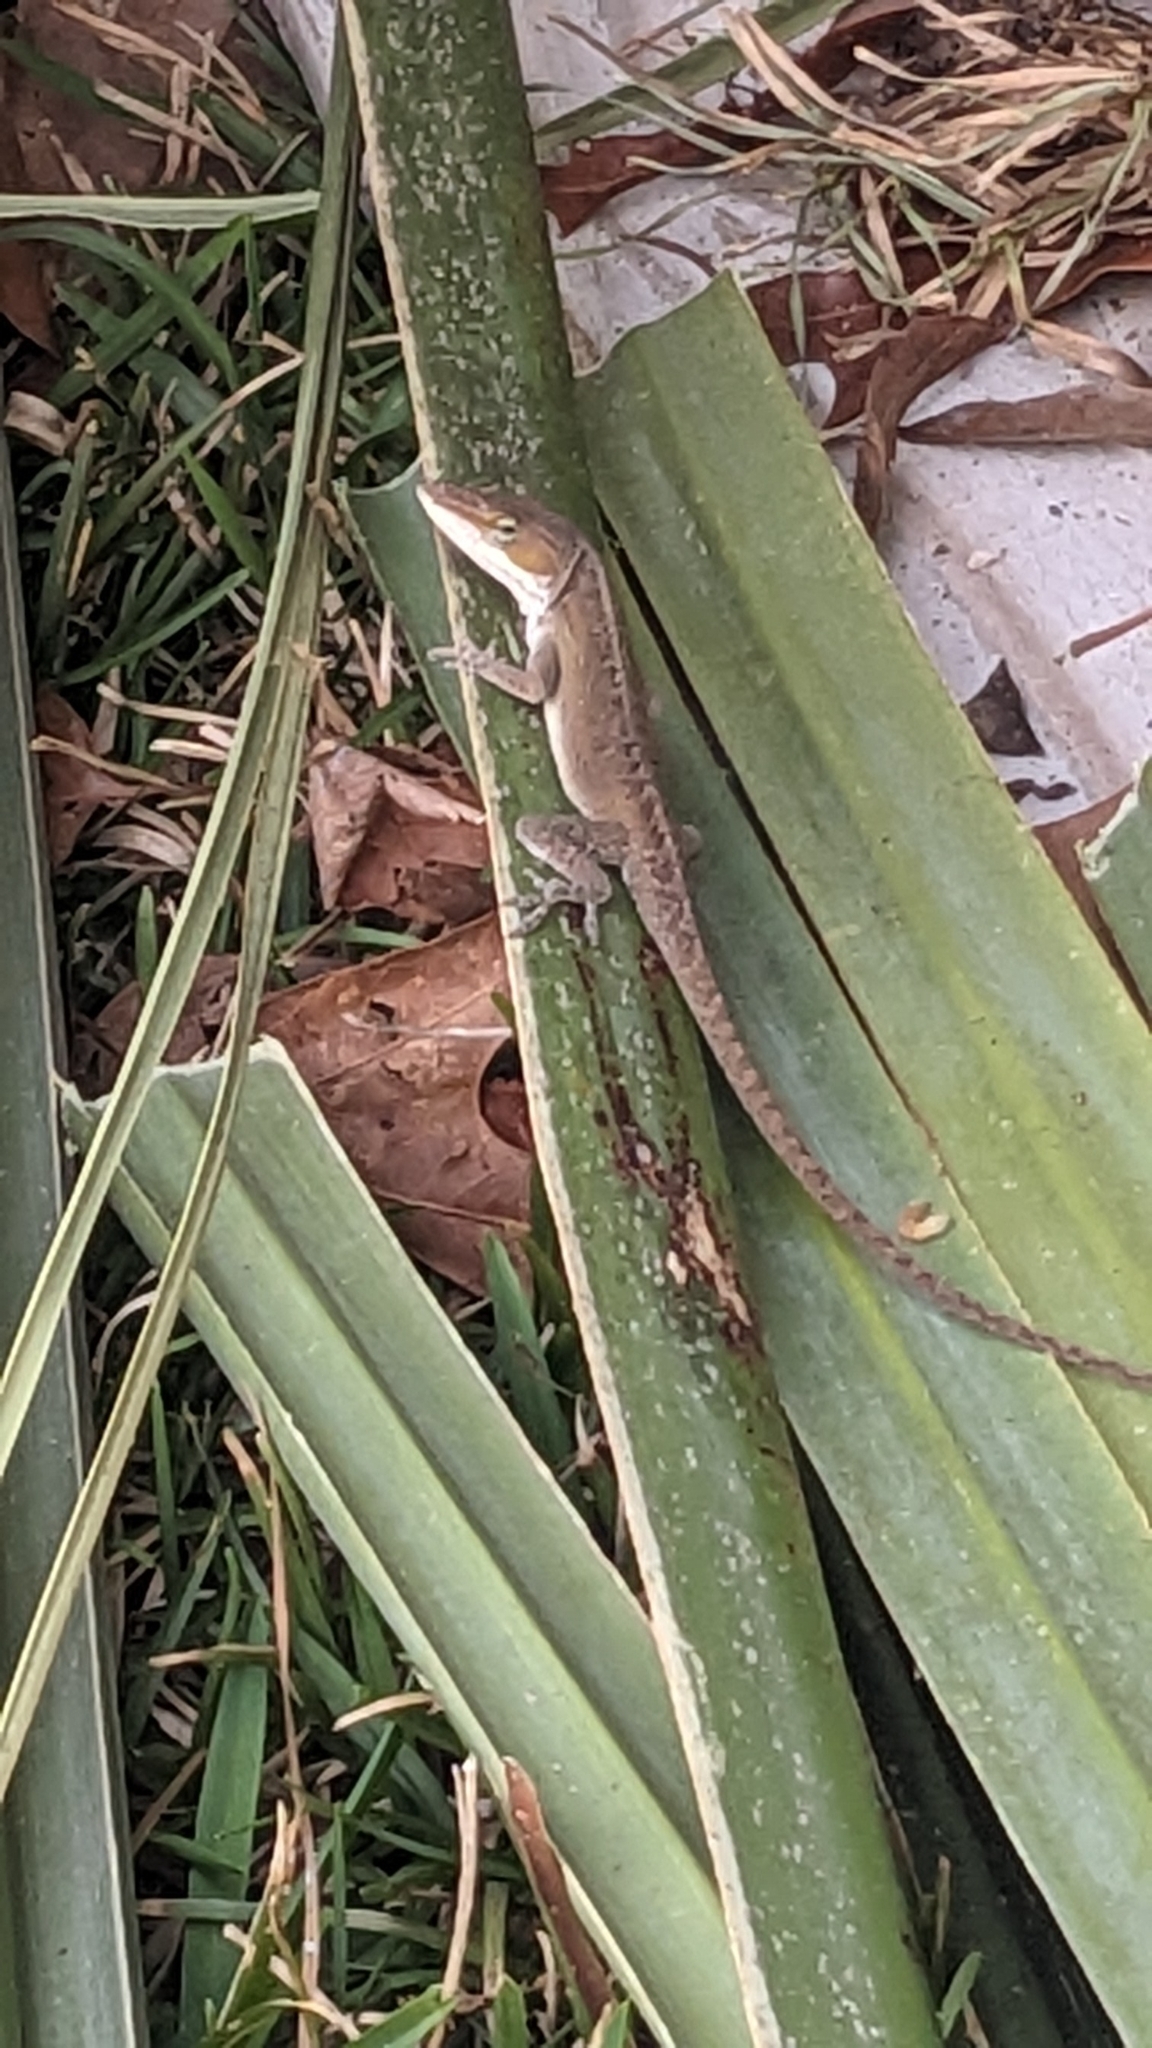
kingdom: Animalia
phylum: Chordata
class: Squamata
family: Dactyloidae
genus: Anolis
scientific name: Anolis carolinensis
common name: Green anole
